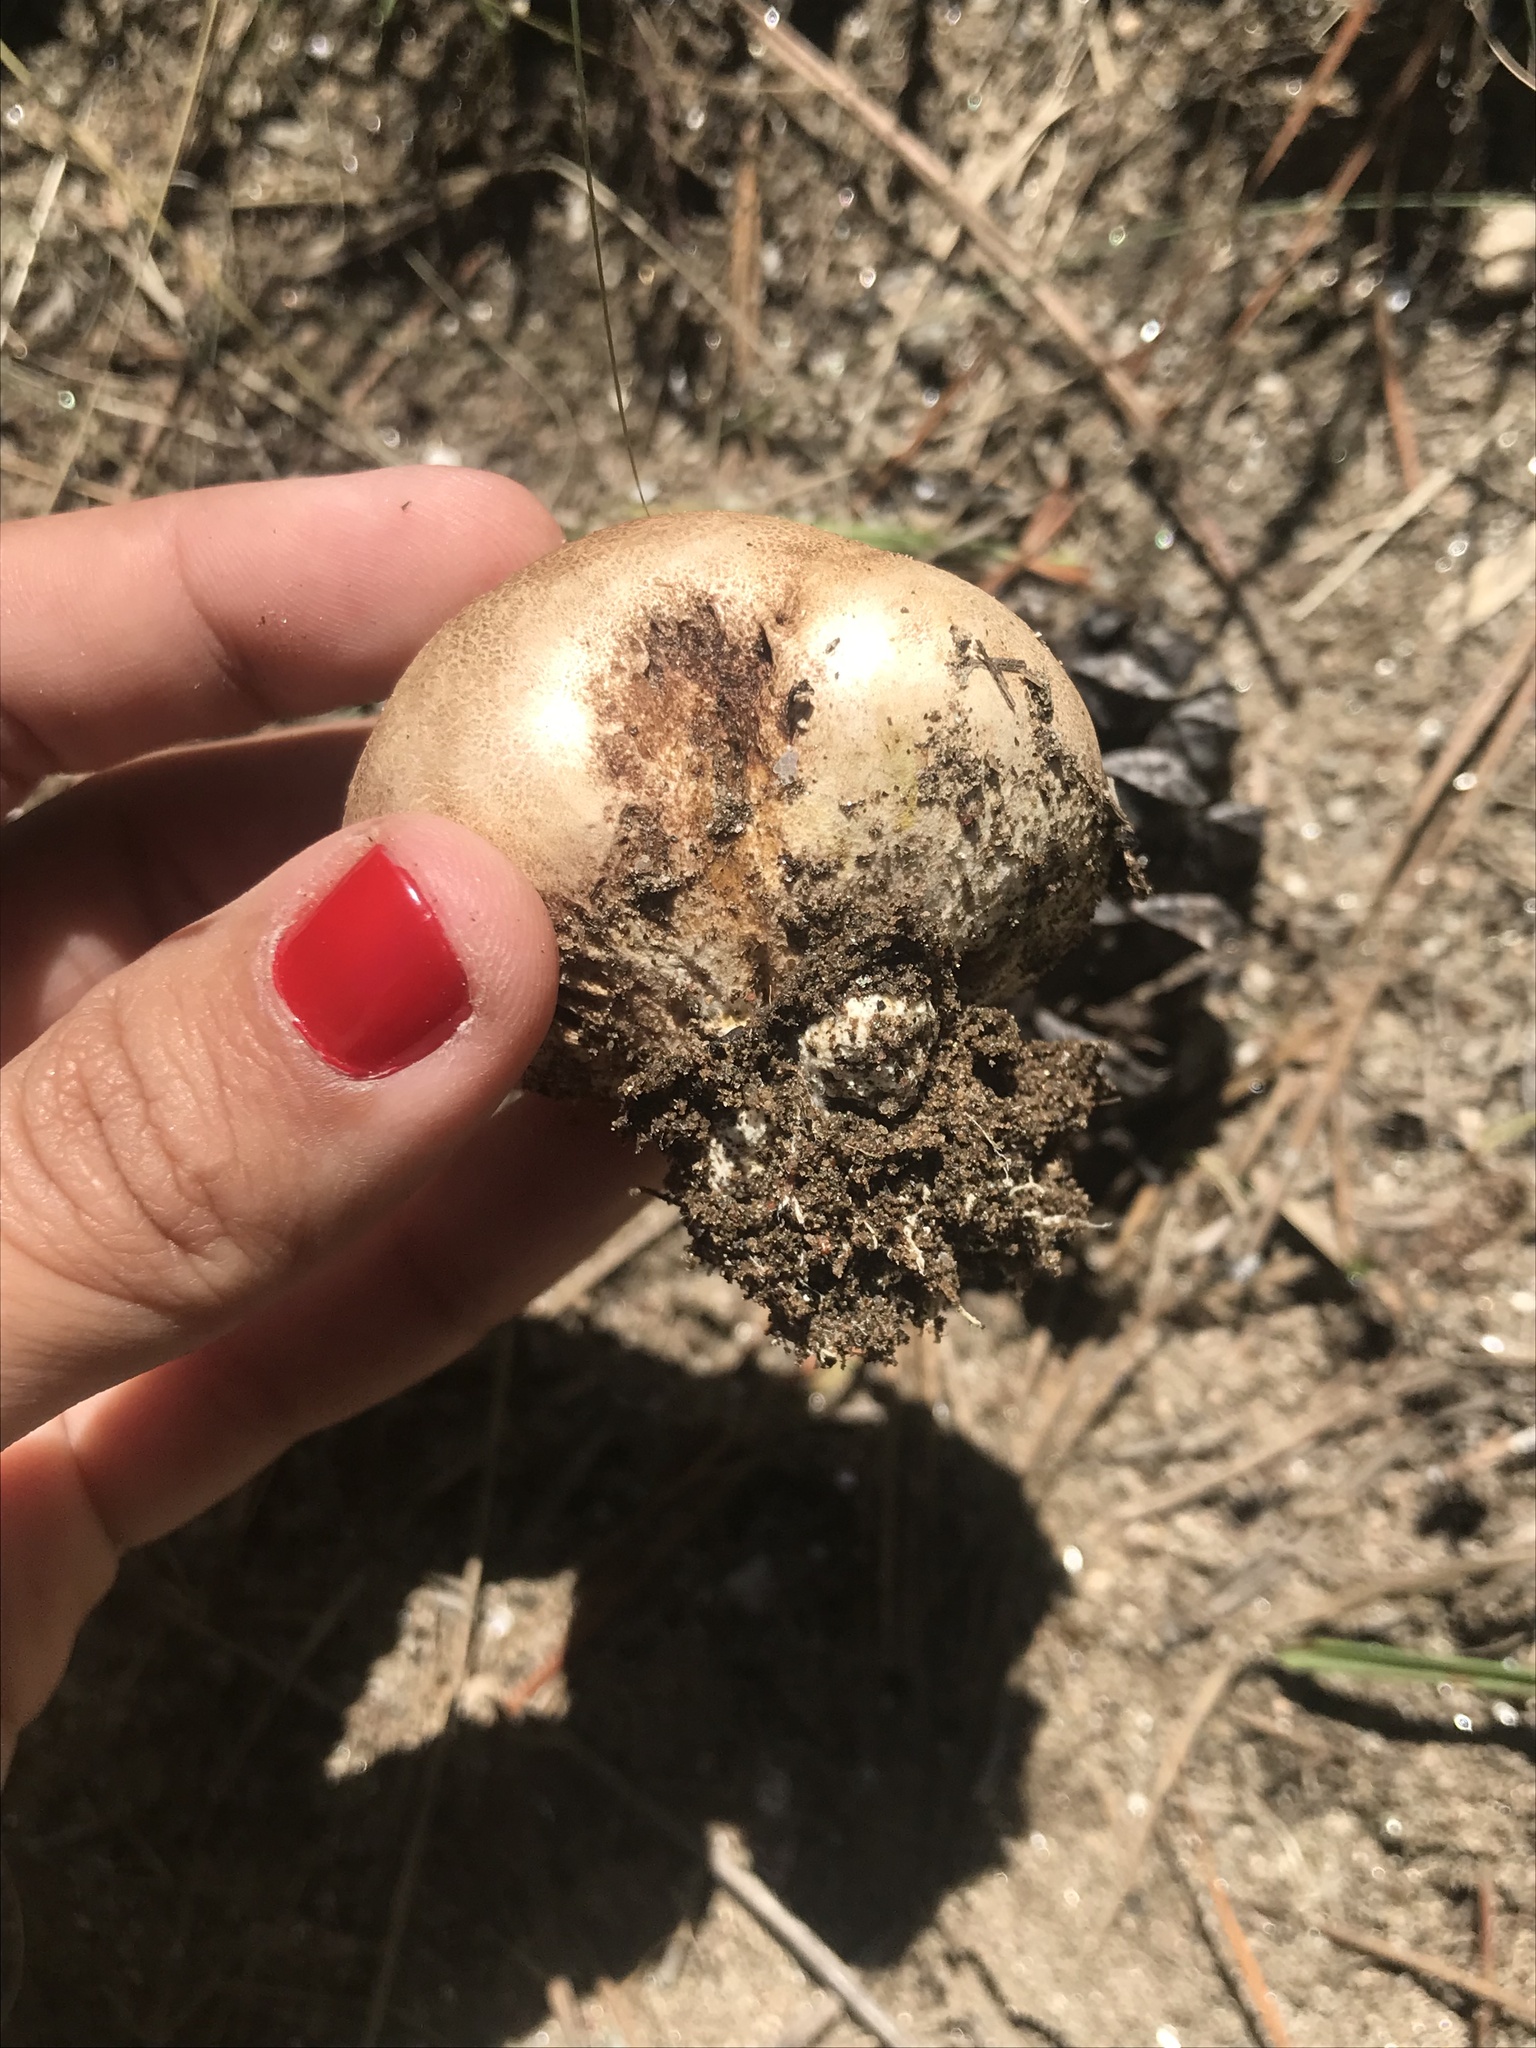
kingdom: Fungi
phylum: Basidiomycota
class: Agaricomycetes
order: Boletales
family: Sclerodermataceae
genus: Scleroderma
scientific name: Scleroderma bovista
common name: Potato earthball
